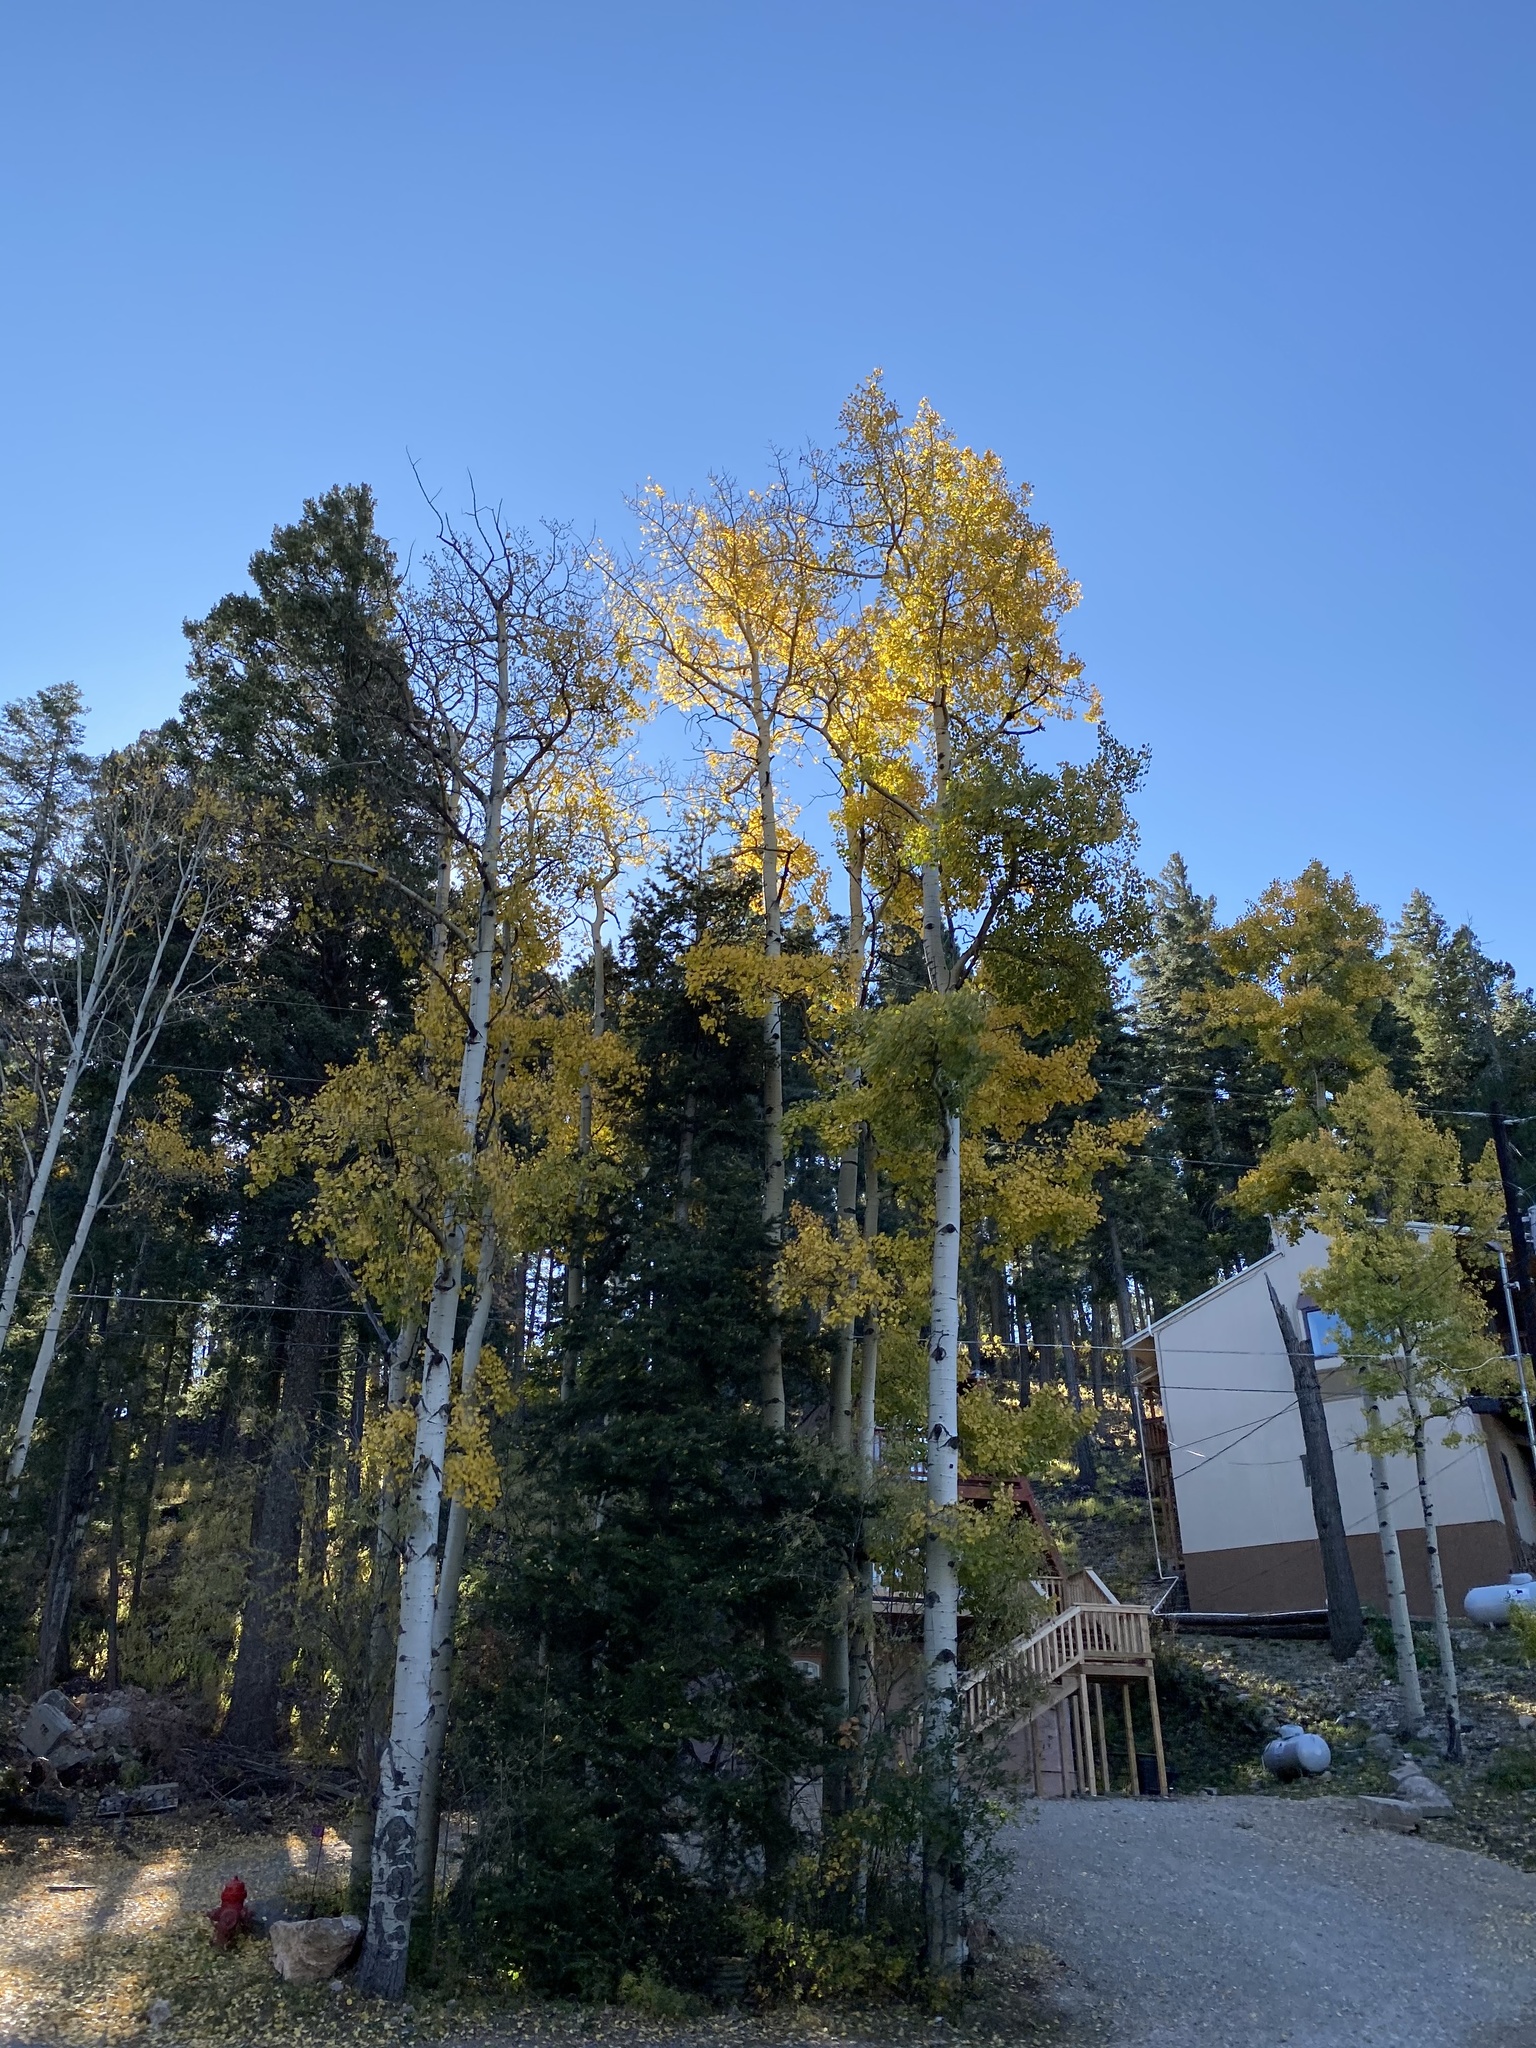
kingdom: Plantae
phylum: Tracheophyta
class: Magnoliopsida
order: Malpighiales
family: Salicaceae
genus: Populus
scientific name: Populus tremuloides
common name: Quaking aspen
